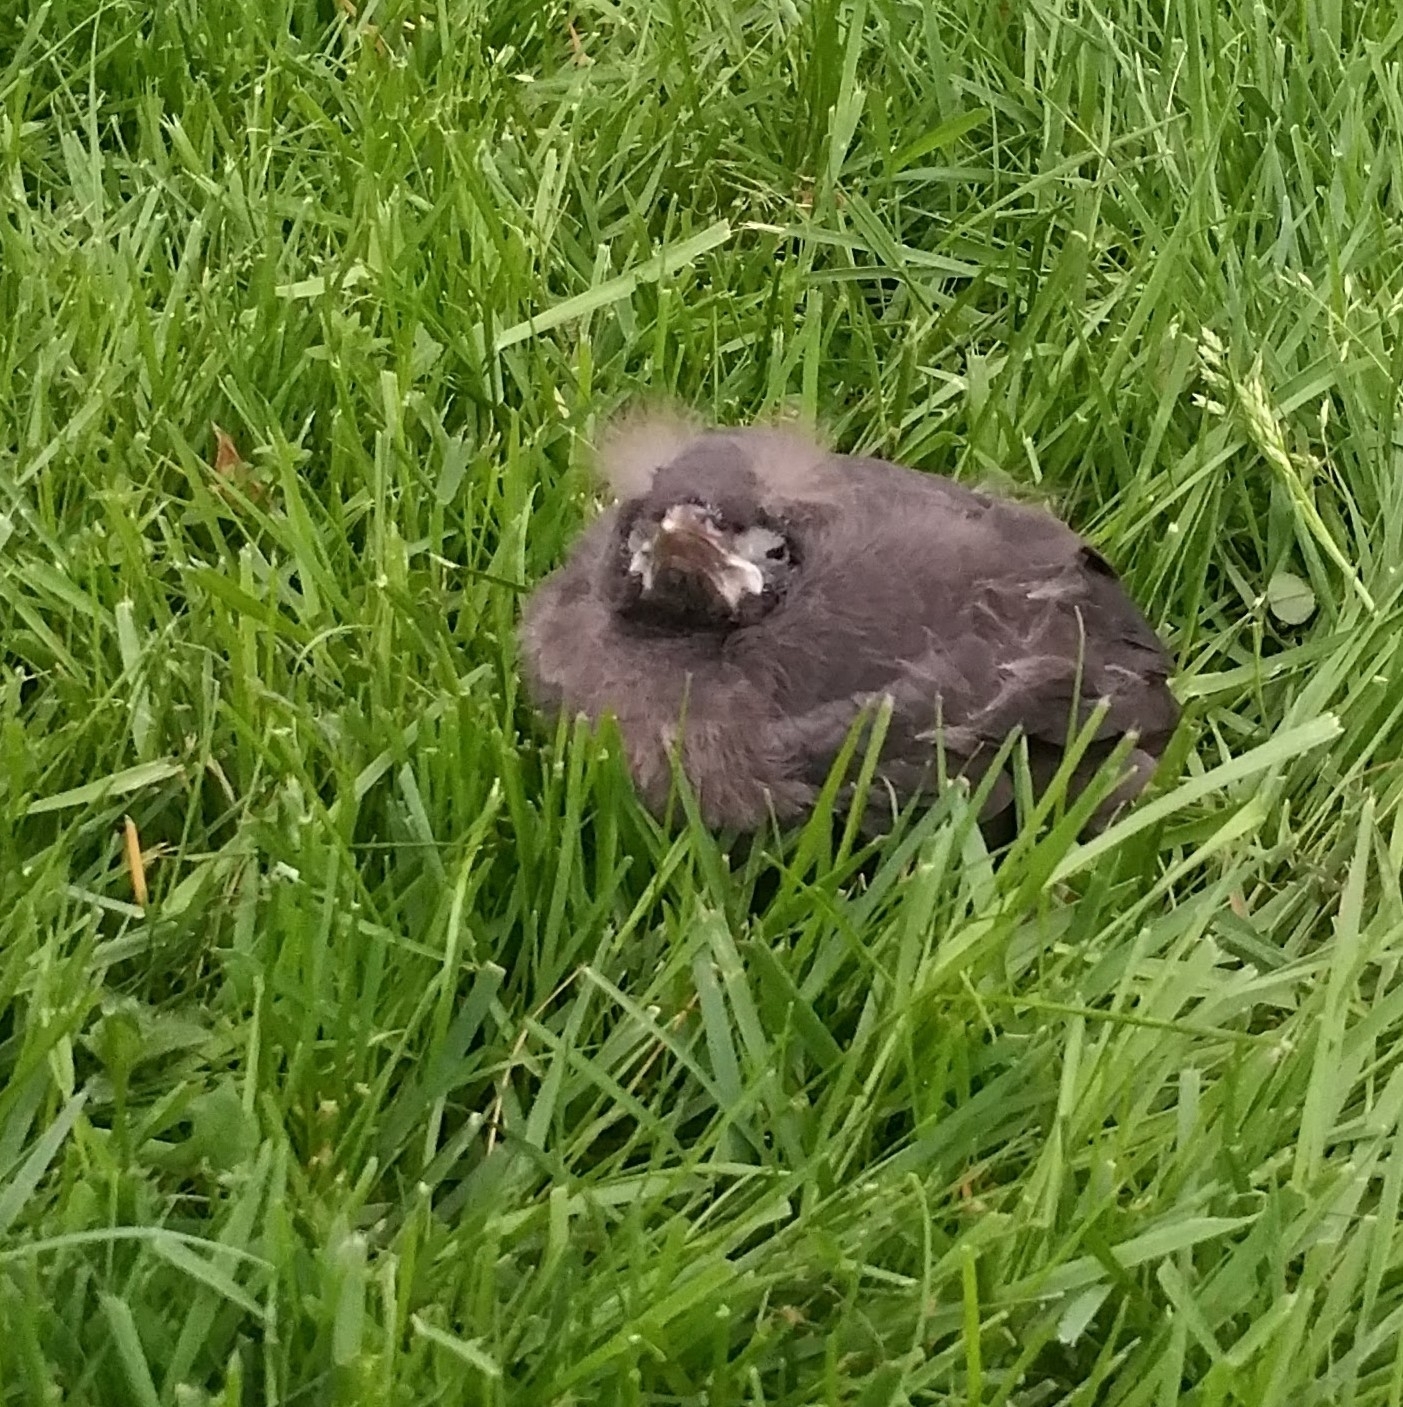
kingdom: Animalia
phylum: Chordata
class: Aves
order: Passeriformes
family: Icteridae
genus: Quiscalus
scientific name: Quiscalus quiscula
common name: Common grackle
